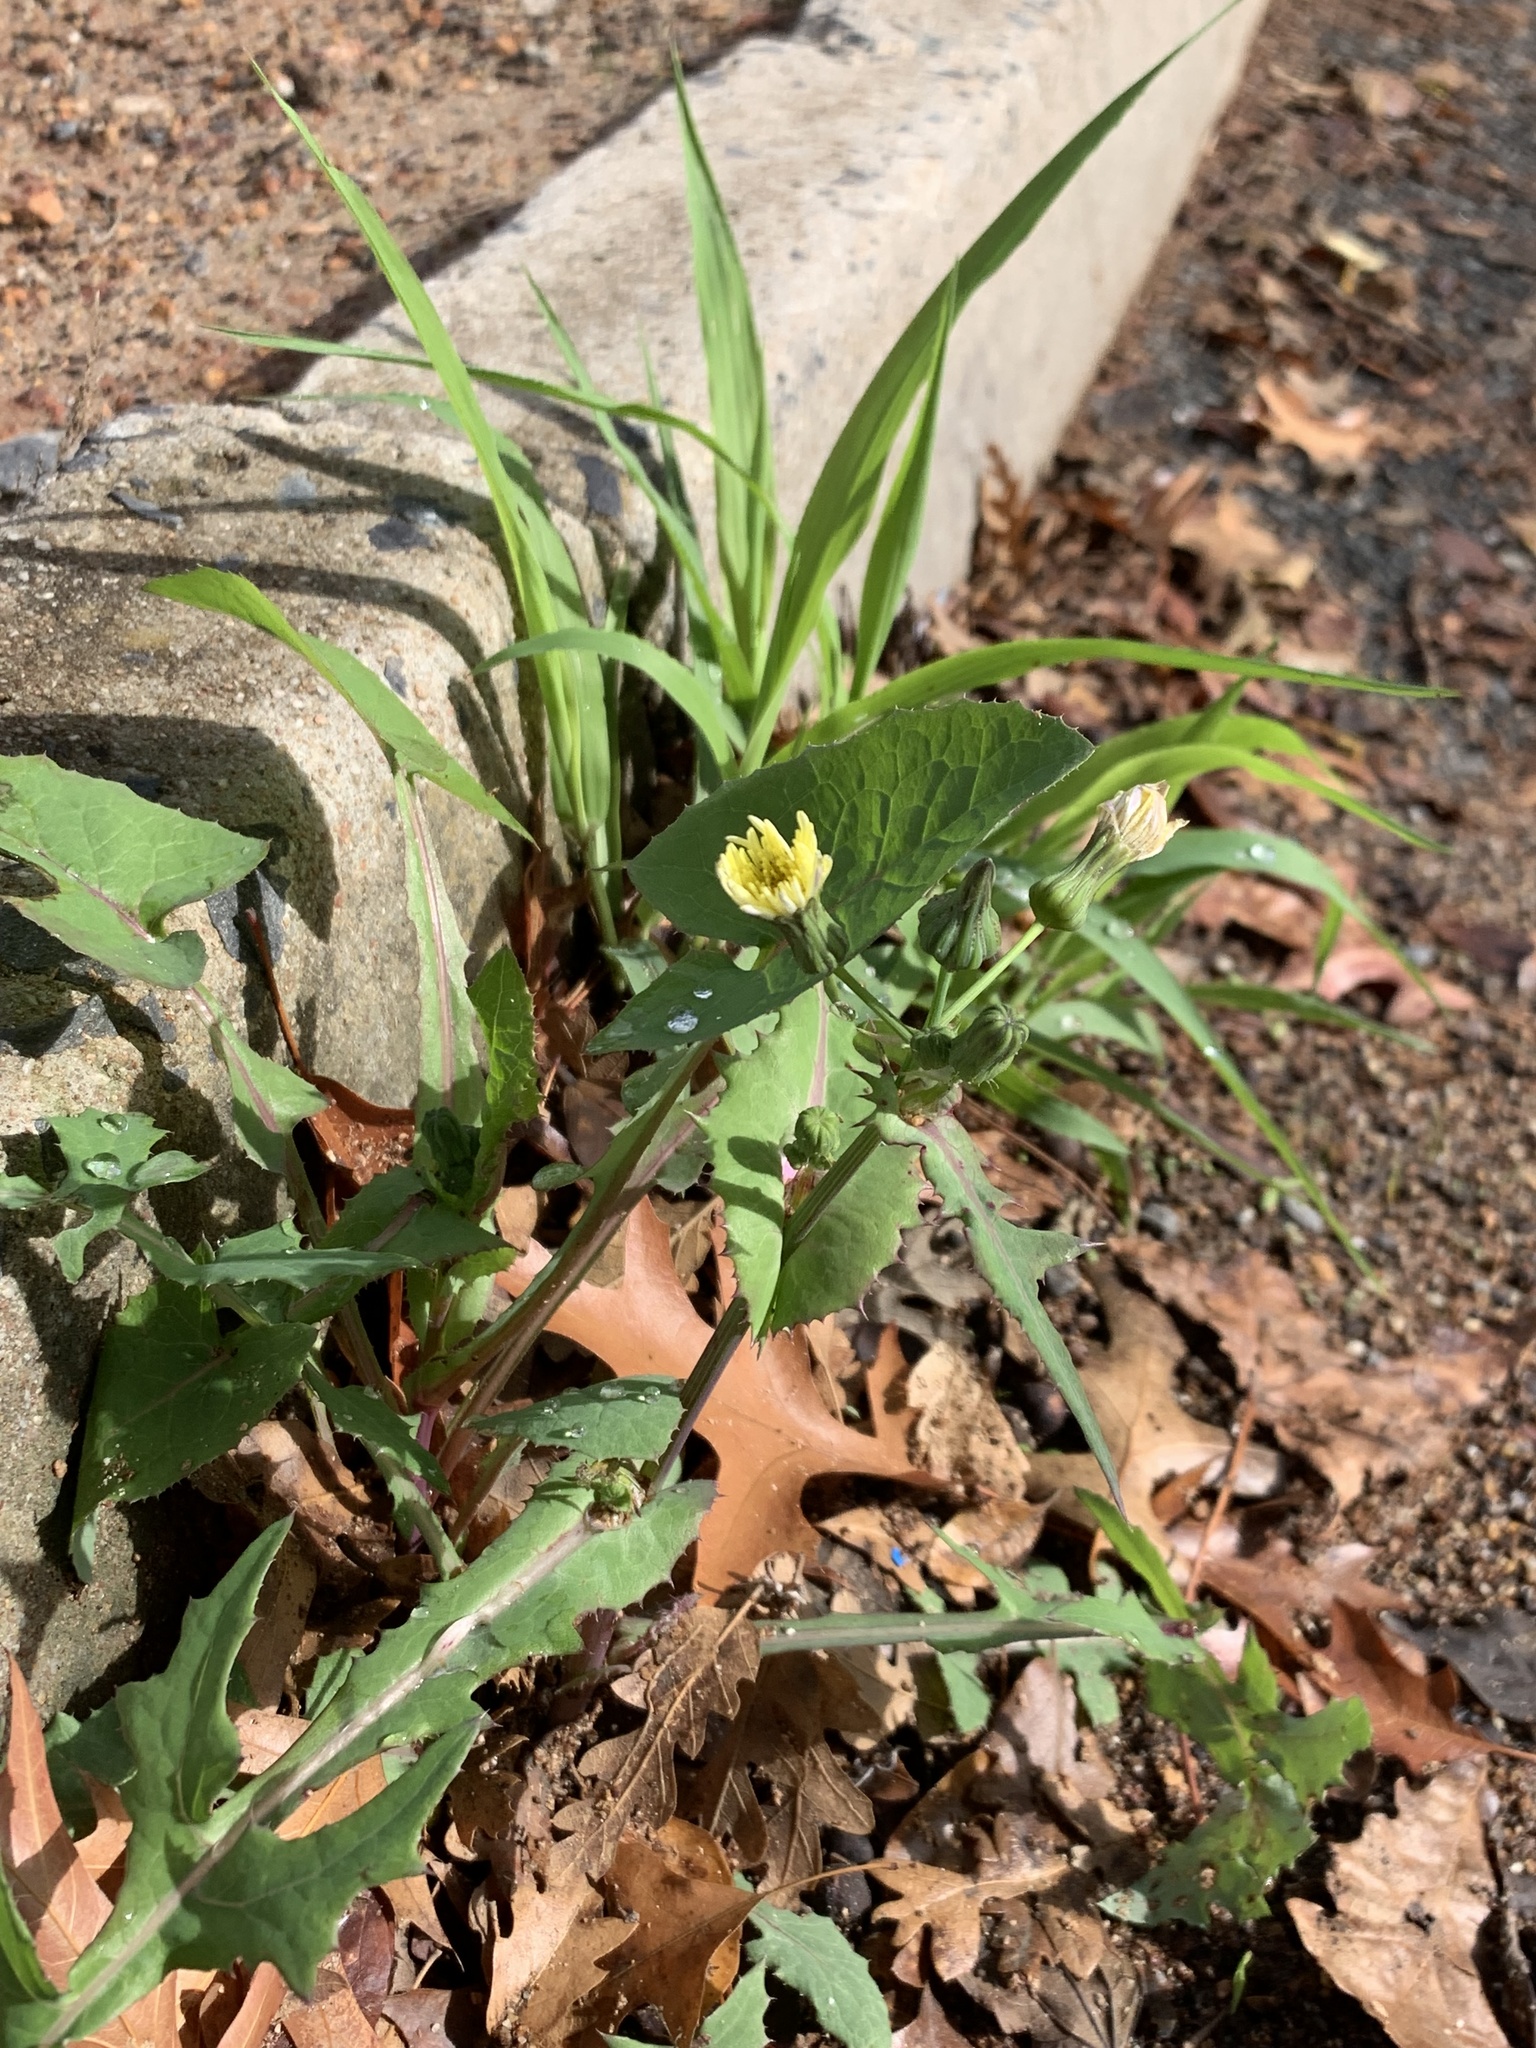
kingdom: Plantae
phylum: Tracheophyta
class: Magnoliopsida
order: Asterales
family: Asteraceae
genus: Sonchus
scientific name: Sonchus oleraceus
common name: Common sowthistle
